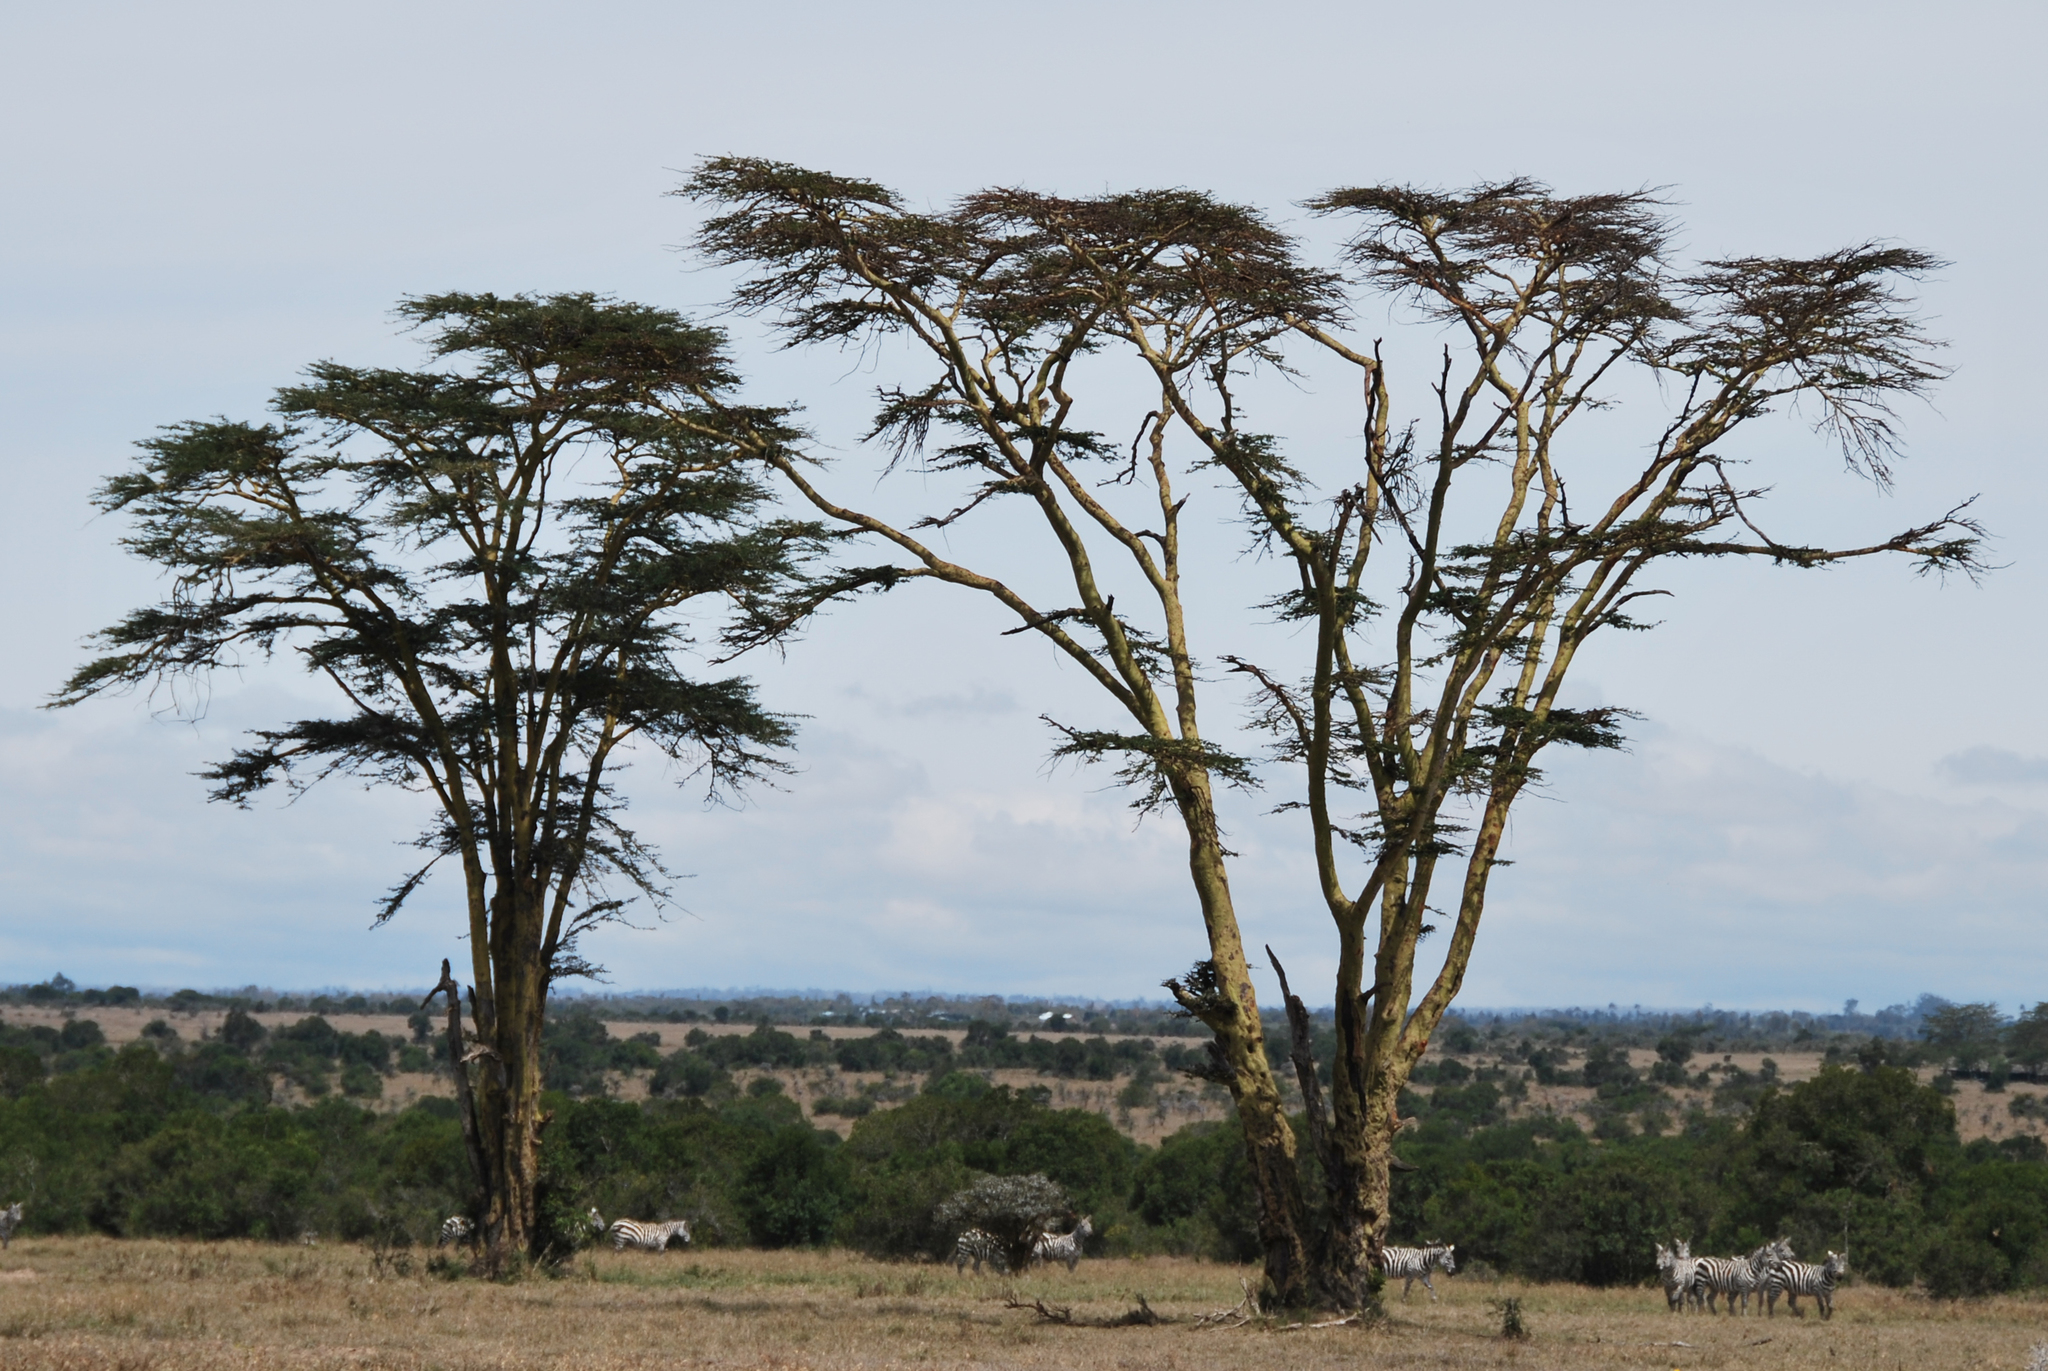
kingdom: Plantae
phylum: Tracheophyta
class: Magnoliopsida
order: Fabales
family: Fabaceae
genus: Vachellia
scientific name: Vachellia xanthophloea
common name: Fever tree
